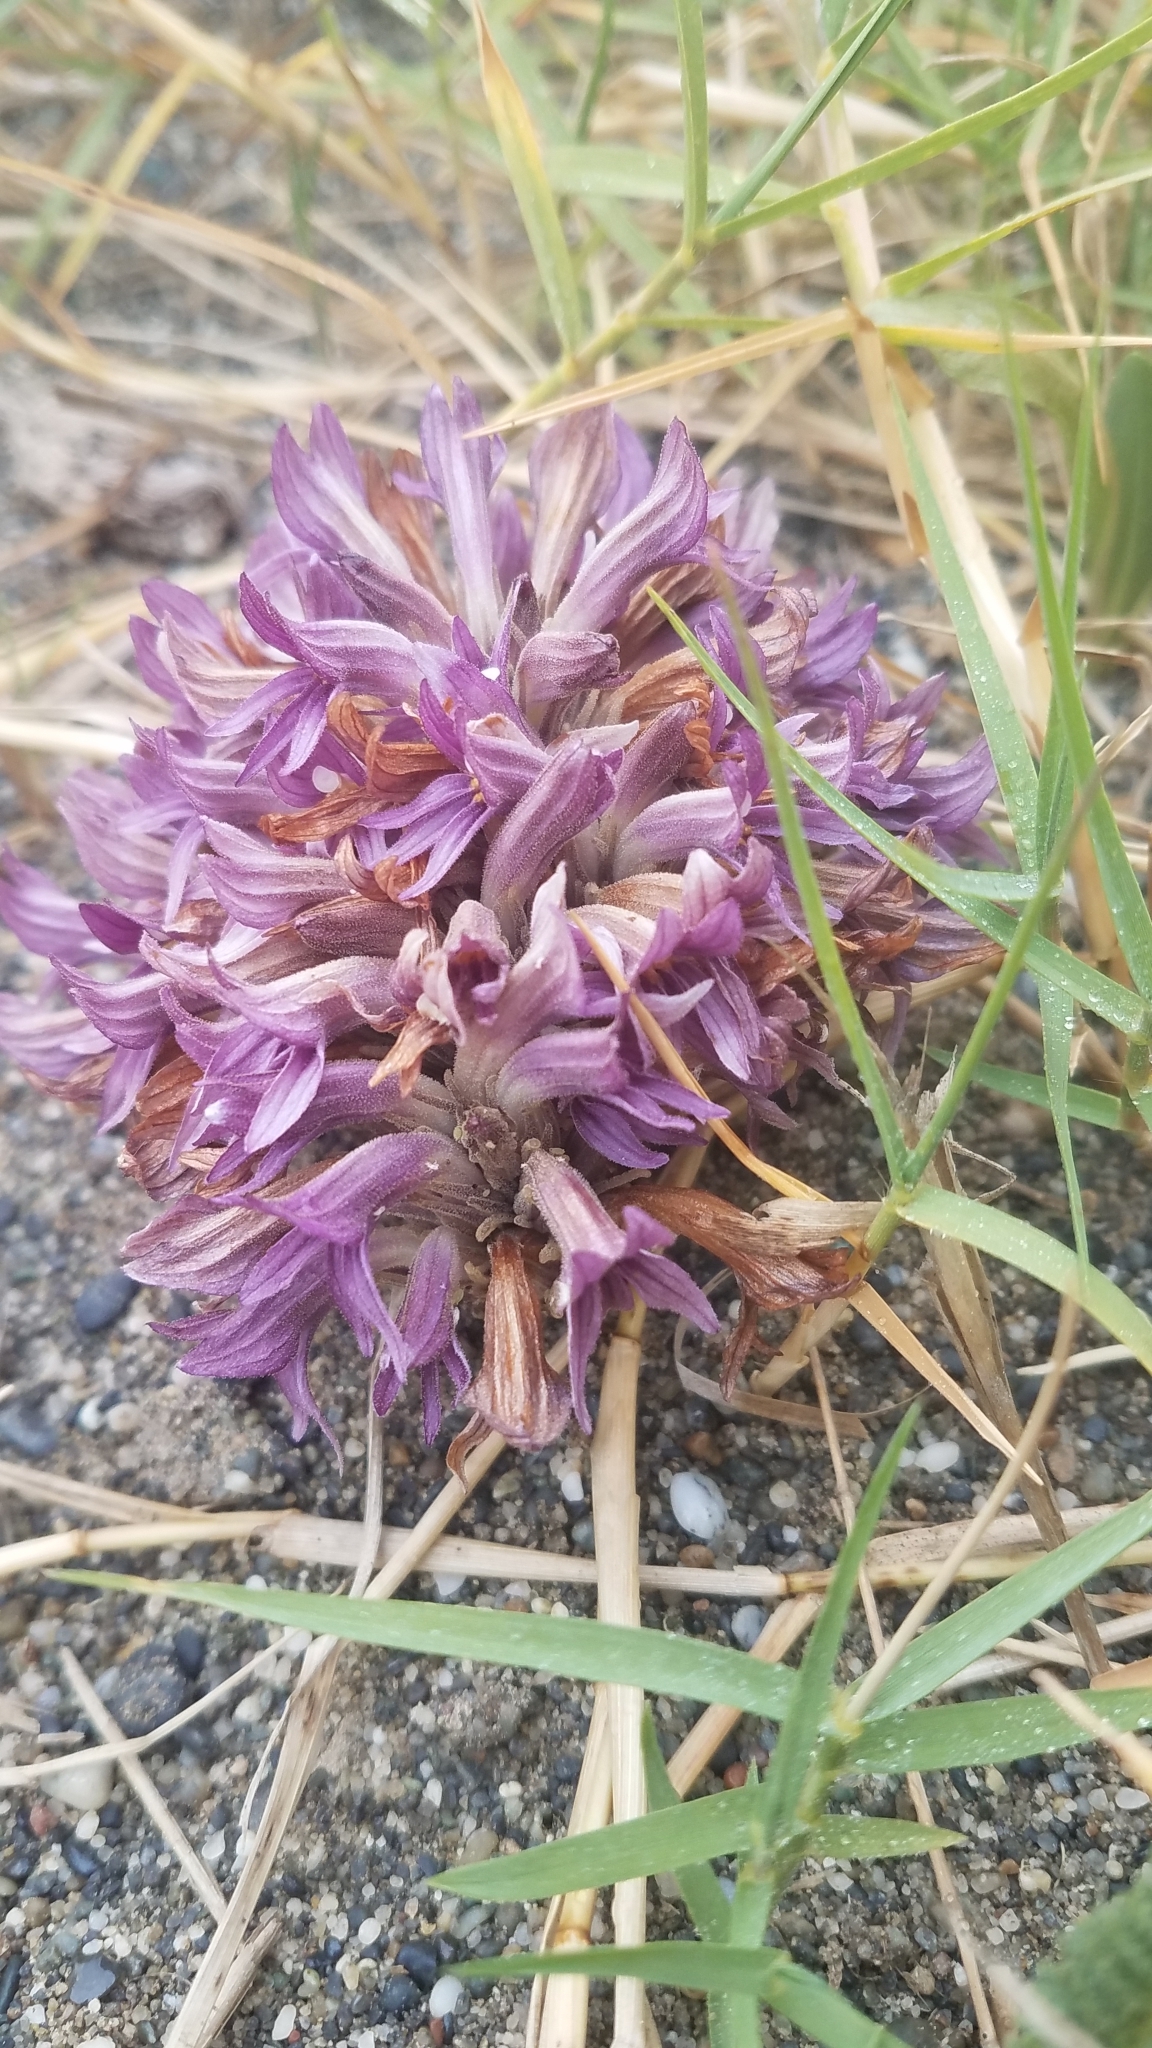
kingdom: Plantae
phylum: Tracheophyta
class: Magnoliopsida
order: Lamiales
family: Orobanchaceae
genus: Aphyllon
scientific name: Aphyllon californicum
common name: California broomrape
